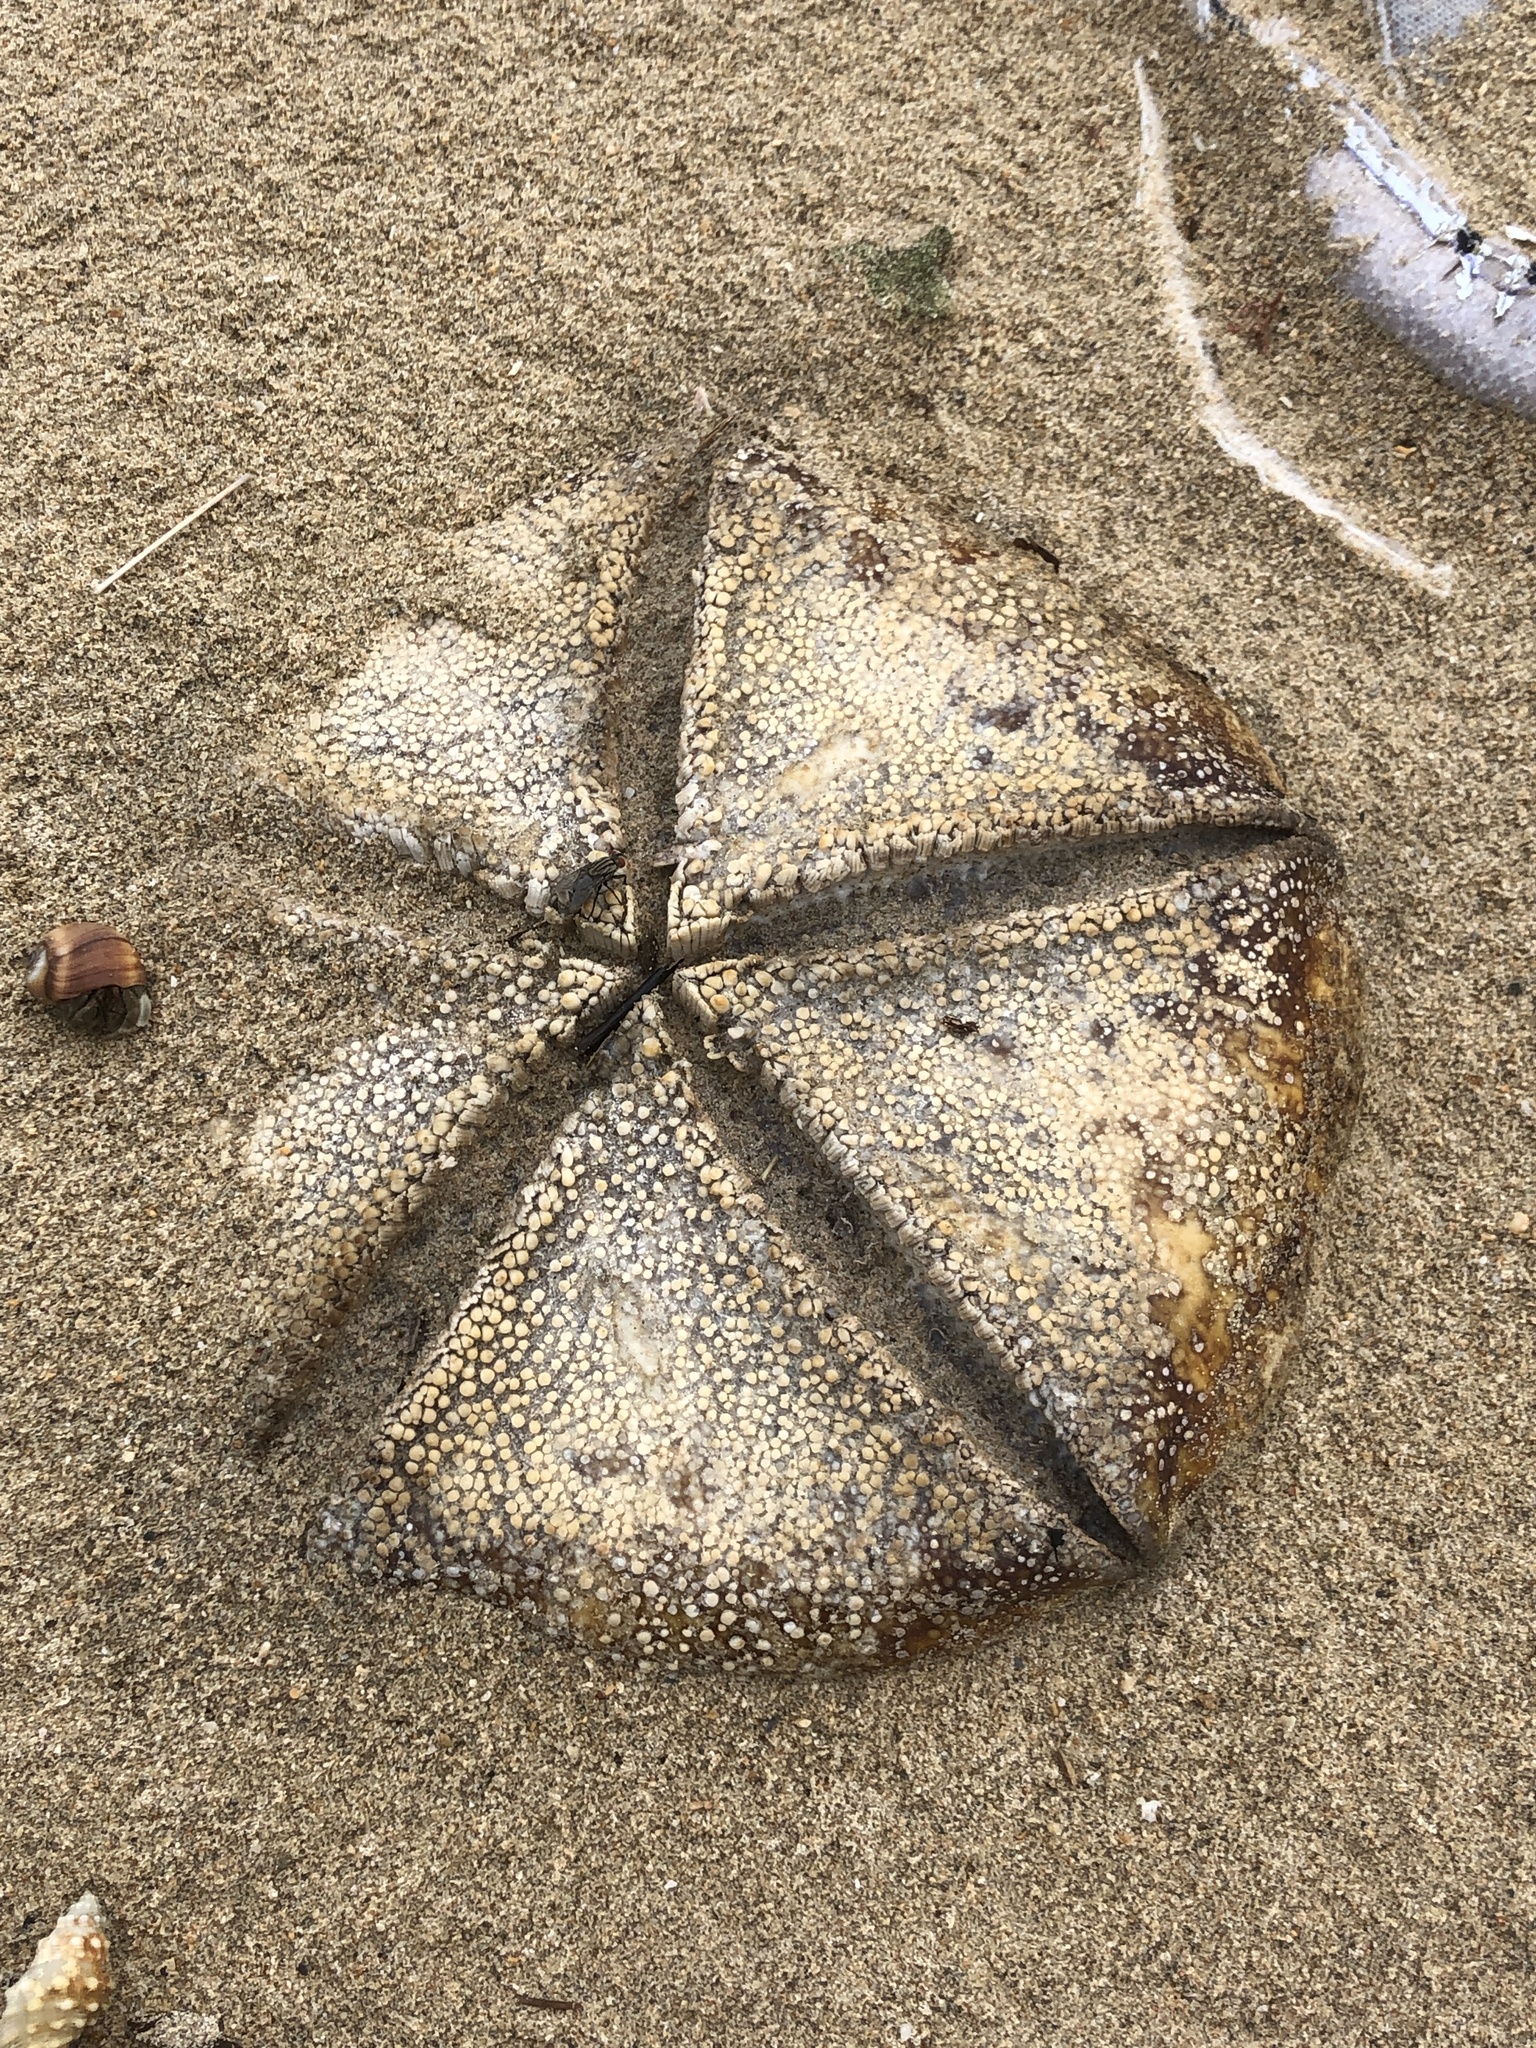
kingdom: Animalia
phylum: Echinodermata
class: Asteroidea
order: Valvatida
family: Oreasteridae
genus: Culcita
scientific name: Culcita novaeguineae
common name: Cushion star
